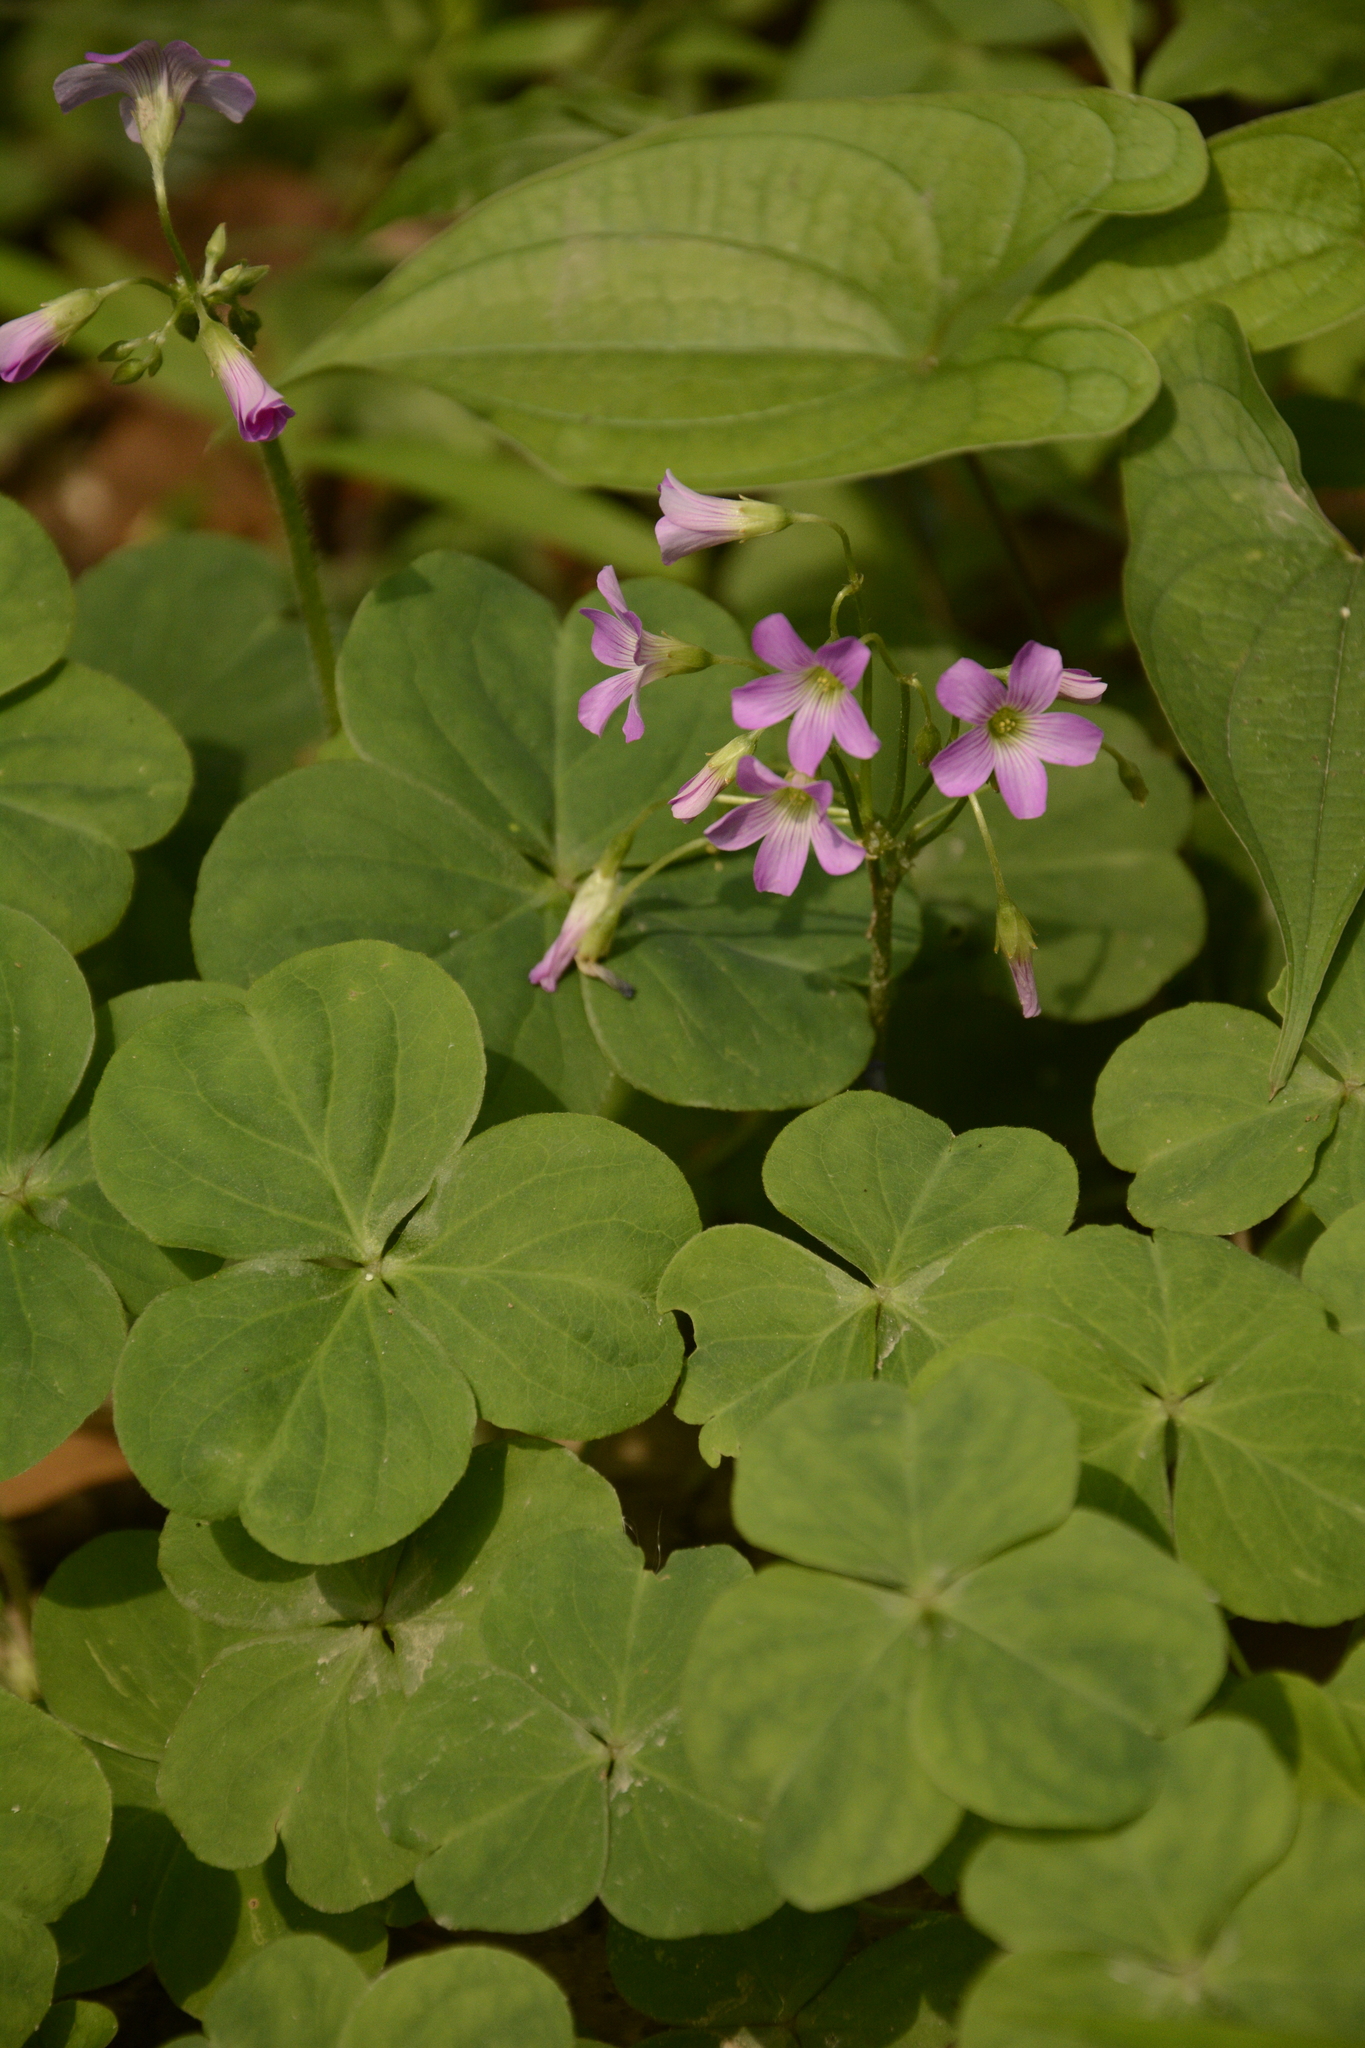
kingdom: Plantae
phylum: Tracheophyta
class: Magnoliopsida
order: Oxalidales
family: Oxalidaceae
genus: Oxalis
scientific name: Oxalis debilis
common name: Large-flowered pink-sorrel
